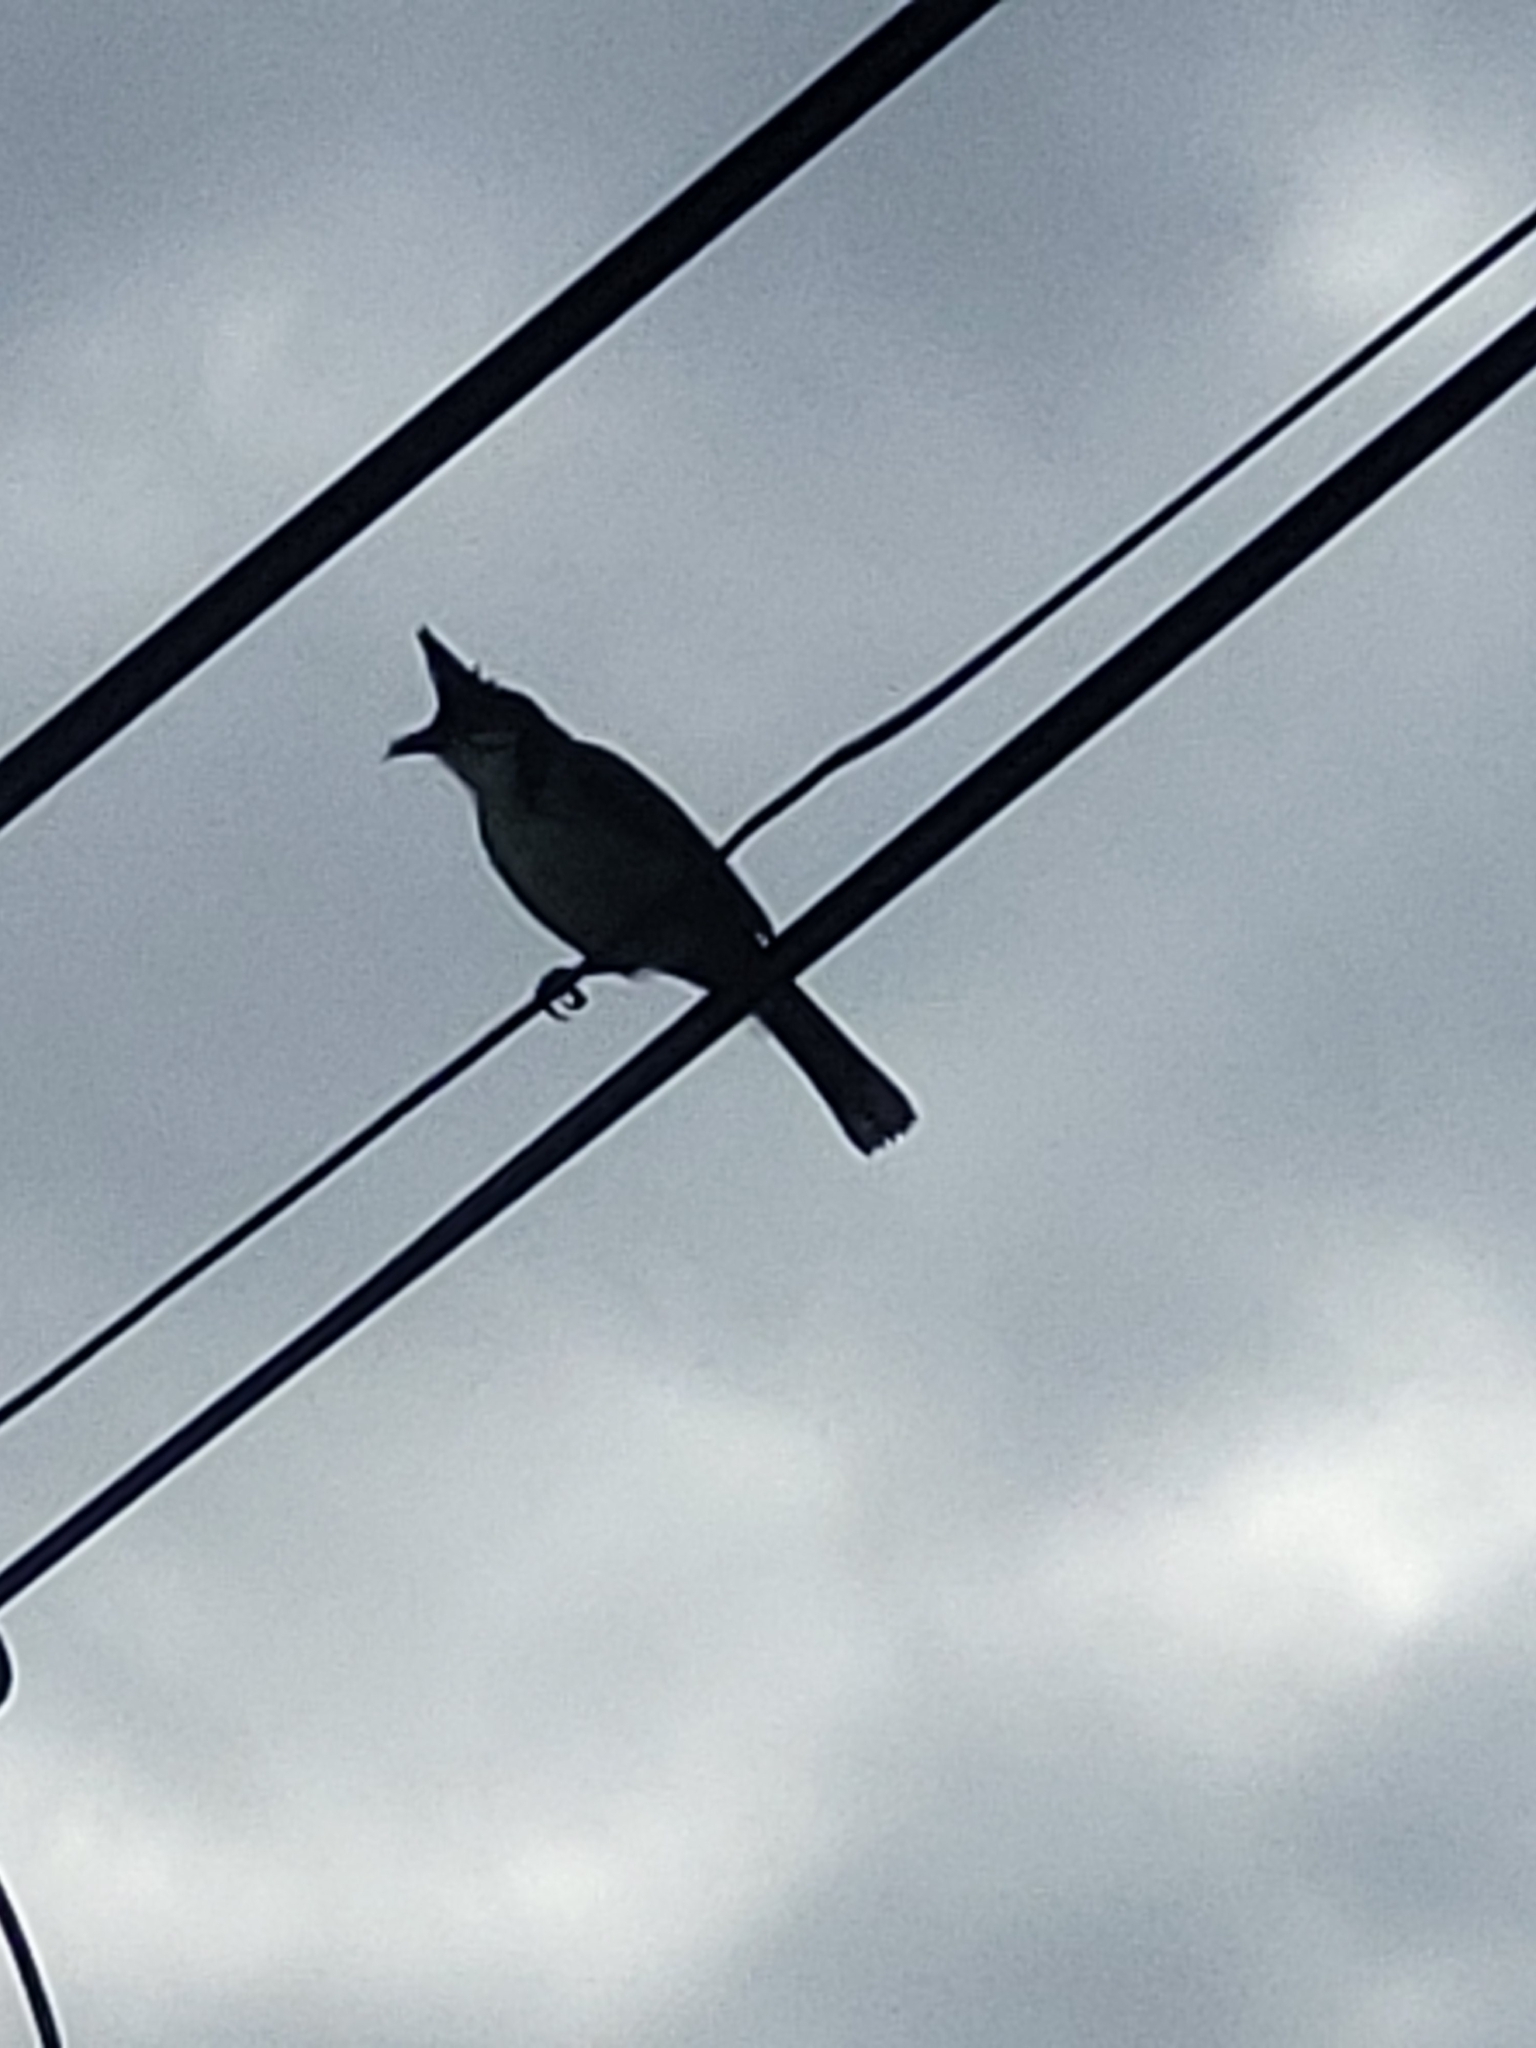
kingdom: Animalia
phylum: Chordata
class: Aves
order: Passeriformes
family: Pycnonotidae
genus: Pycnonotus
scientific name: Pycnonotus jocosus
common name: Red-whiskered bulbul
